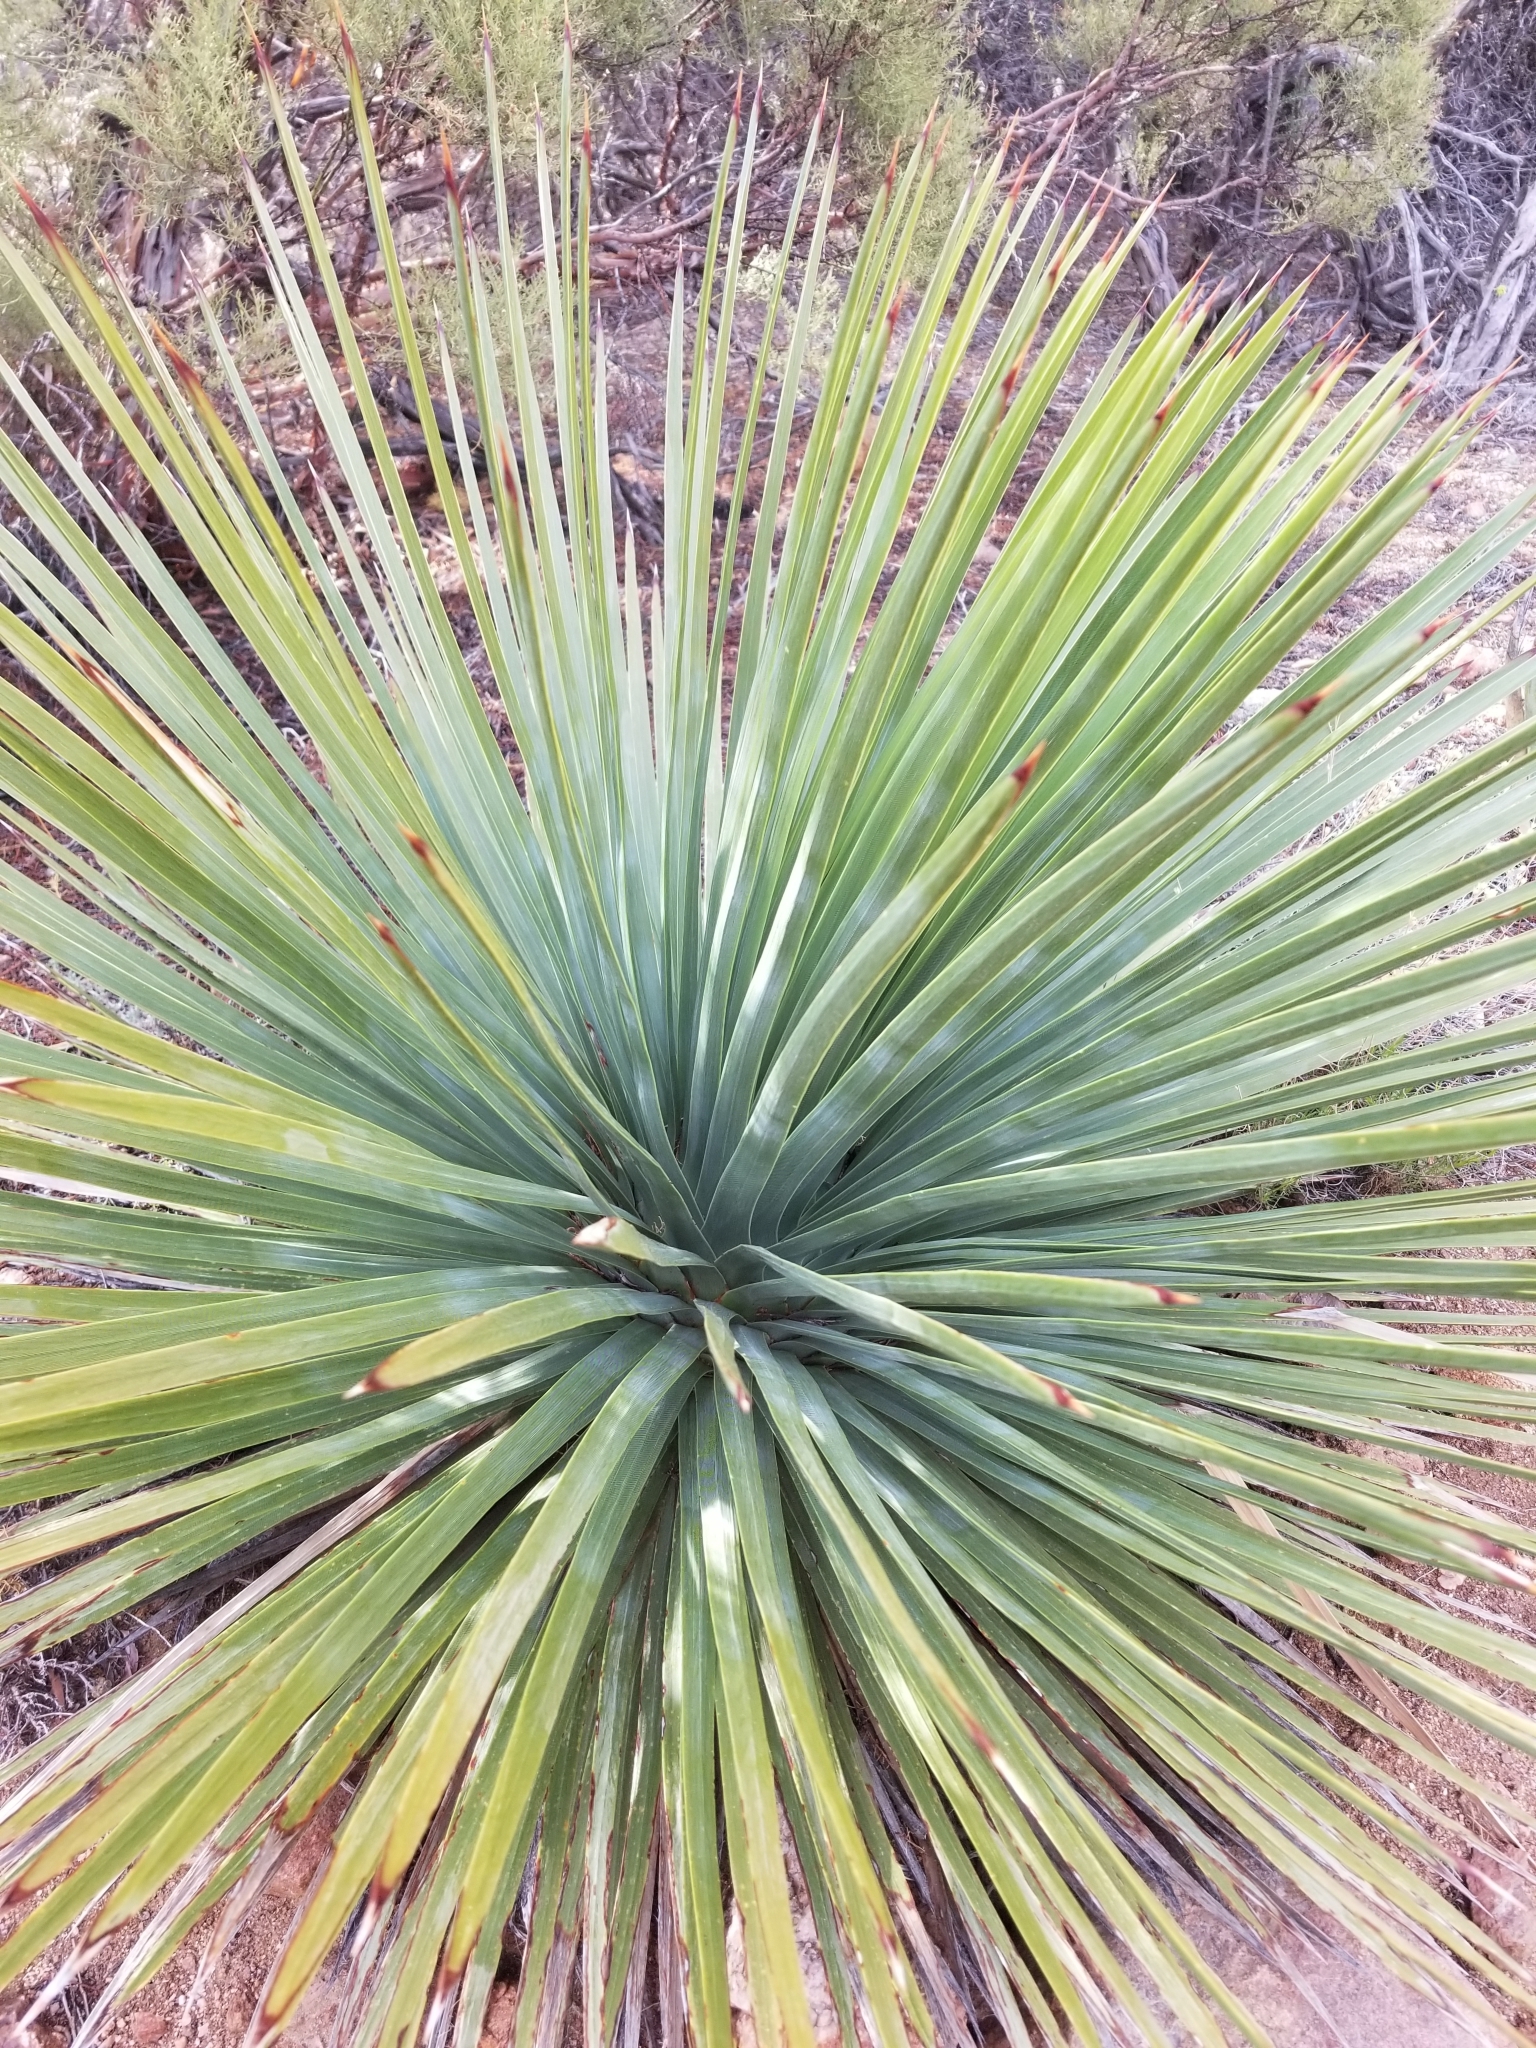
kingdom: Plantae
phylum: Tracheophyta
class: Liliopsida
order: Asparagales
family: Asparagaceae
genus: Hesperoyucca
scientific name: Hesperoyucca whipplei
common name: Our lord's-candle
